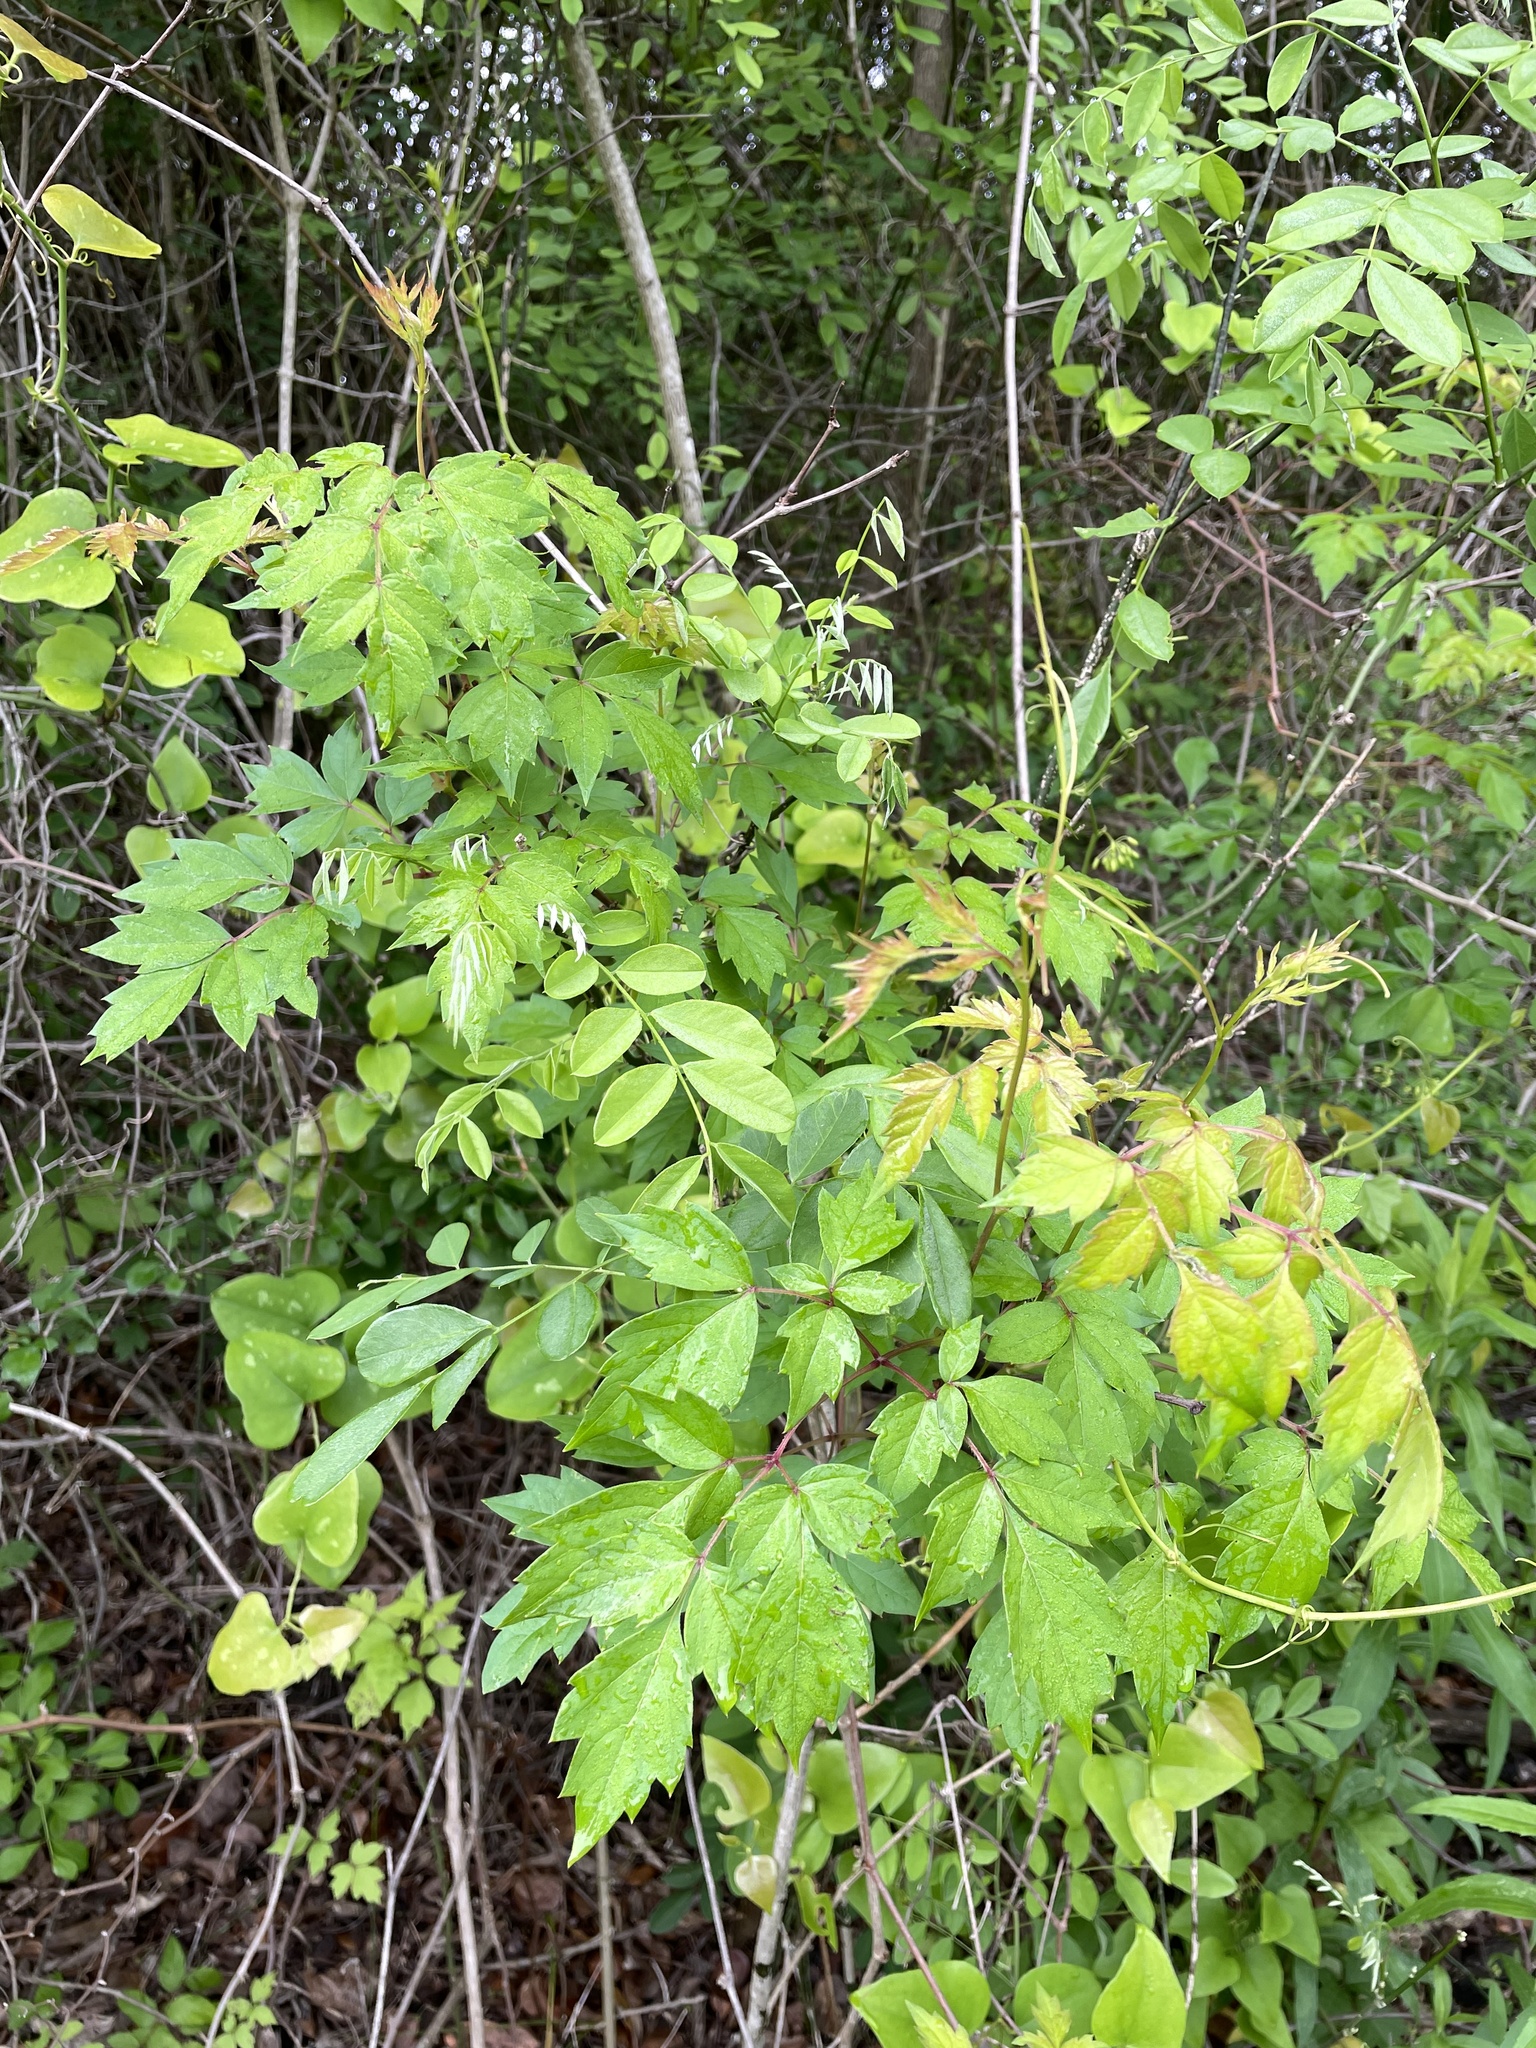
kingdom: Plantae
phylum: Tracheophyta
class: Magnoliopsida
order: Vitales
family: Vitaceae
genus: Nekemias
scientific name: Nekemias arborea
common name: Peppervine
